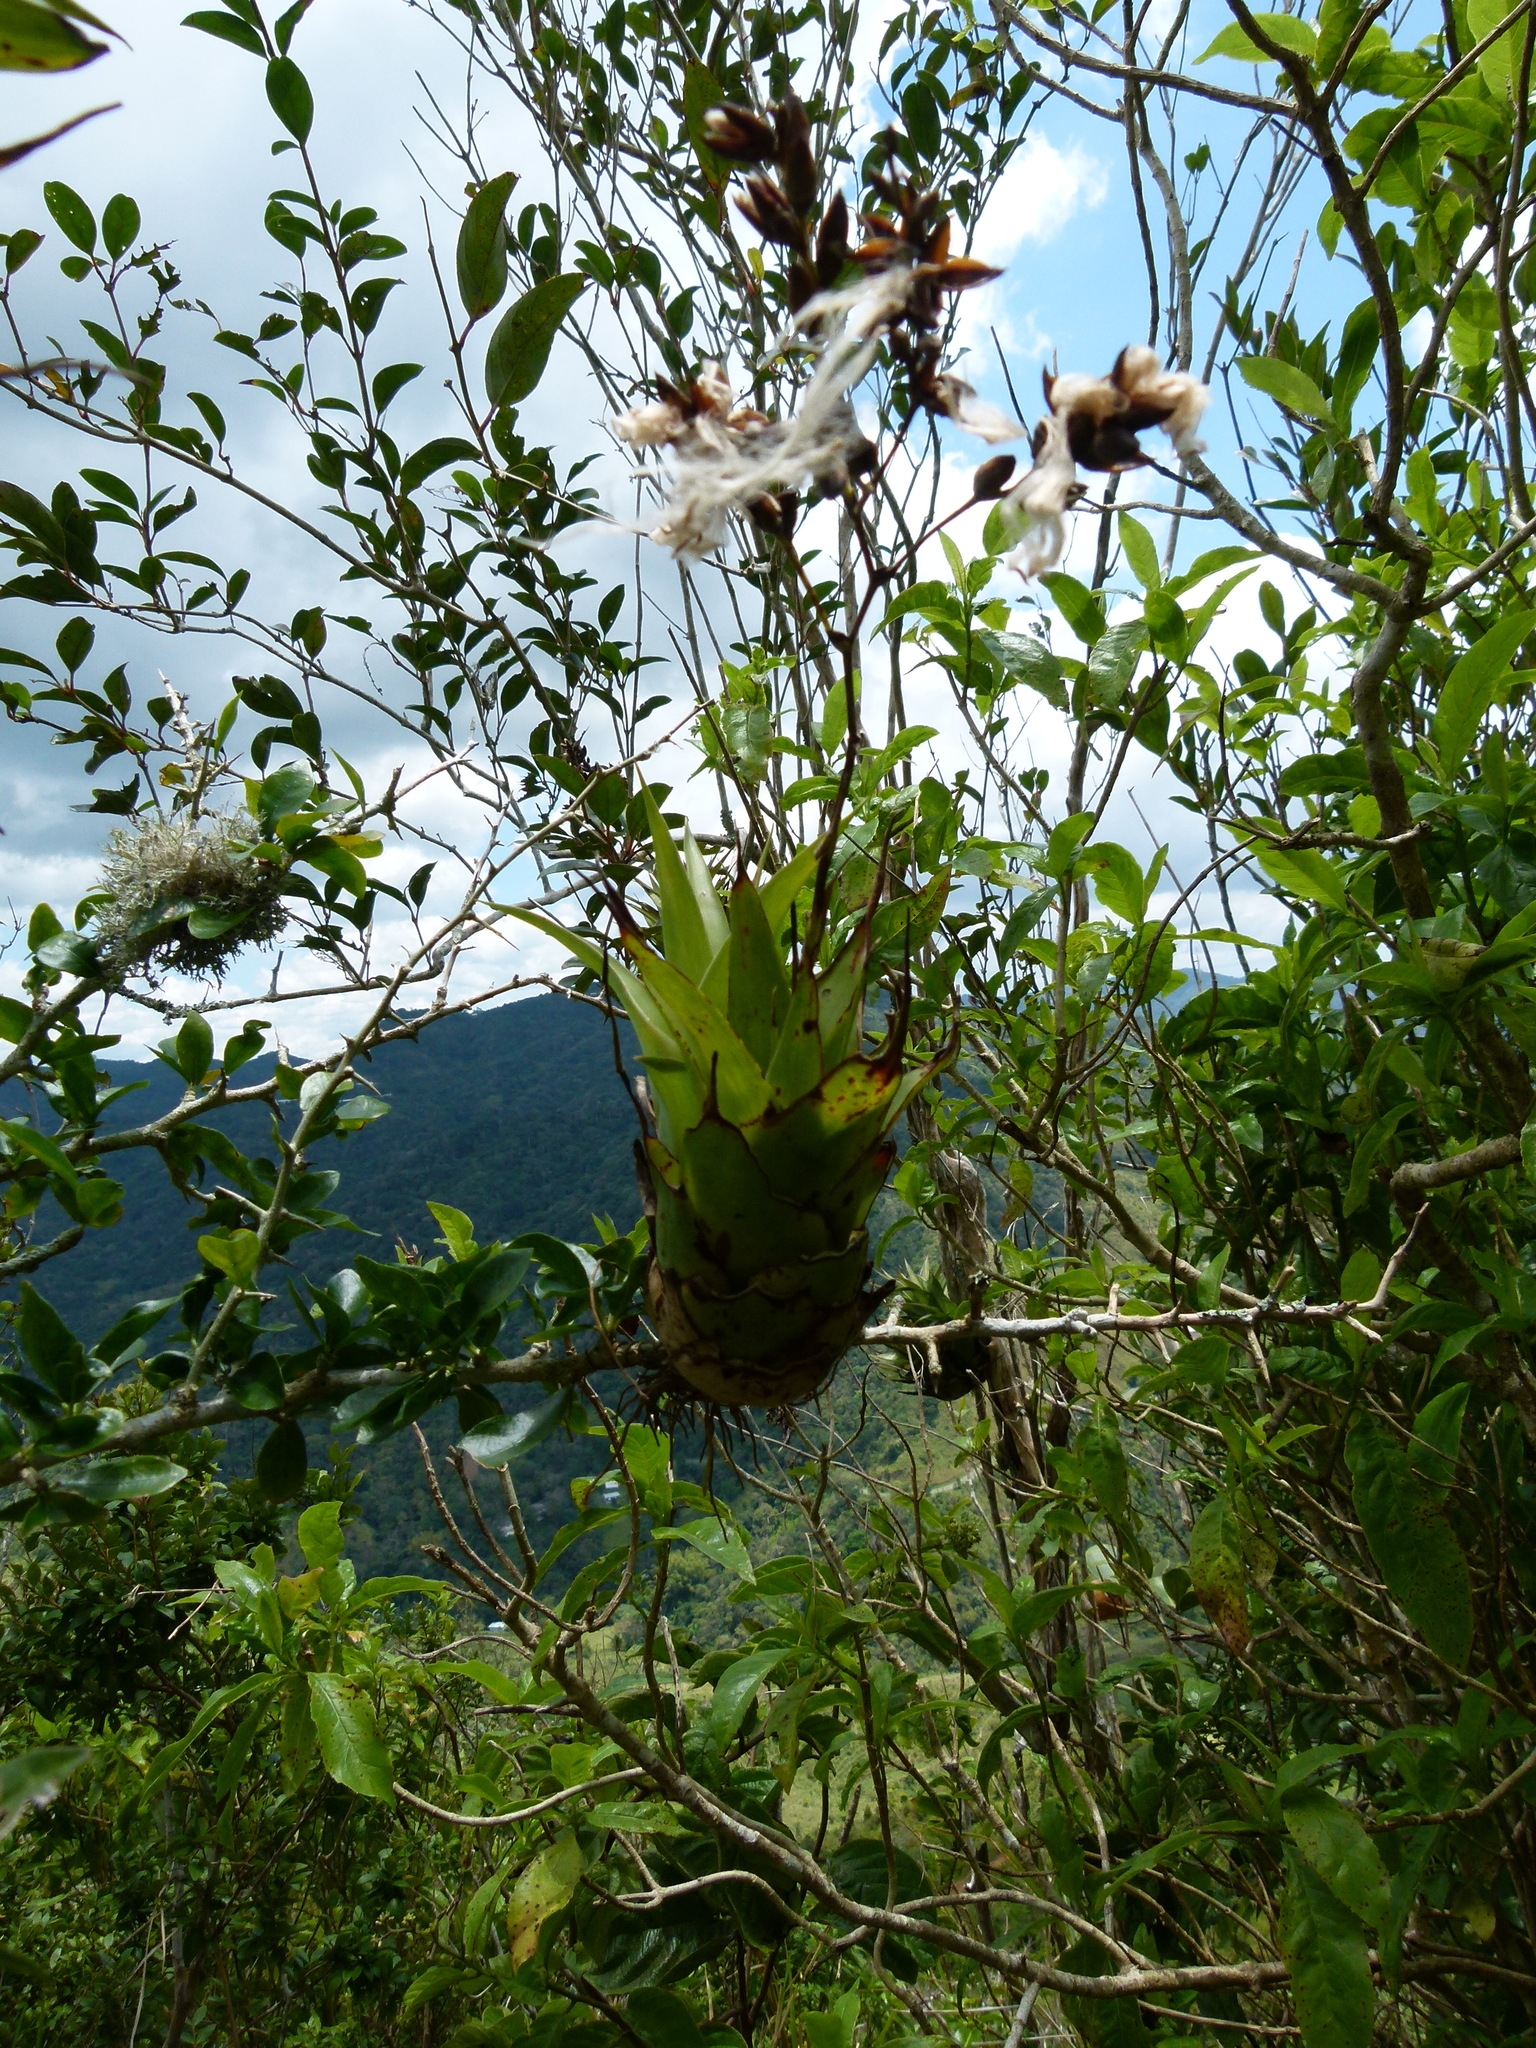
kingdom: Plantae
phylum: Tracheophyta
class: Liliopsida
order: Poales
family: Bromeliaceae
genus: Catopsis
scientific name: Catopsis floribunda
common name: Florida strap airplant
